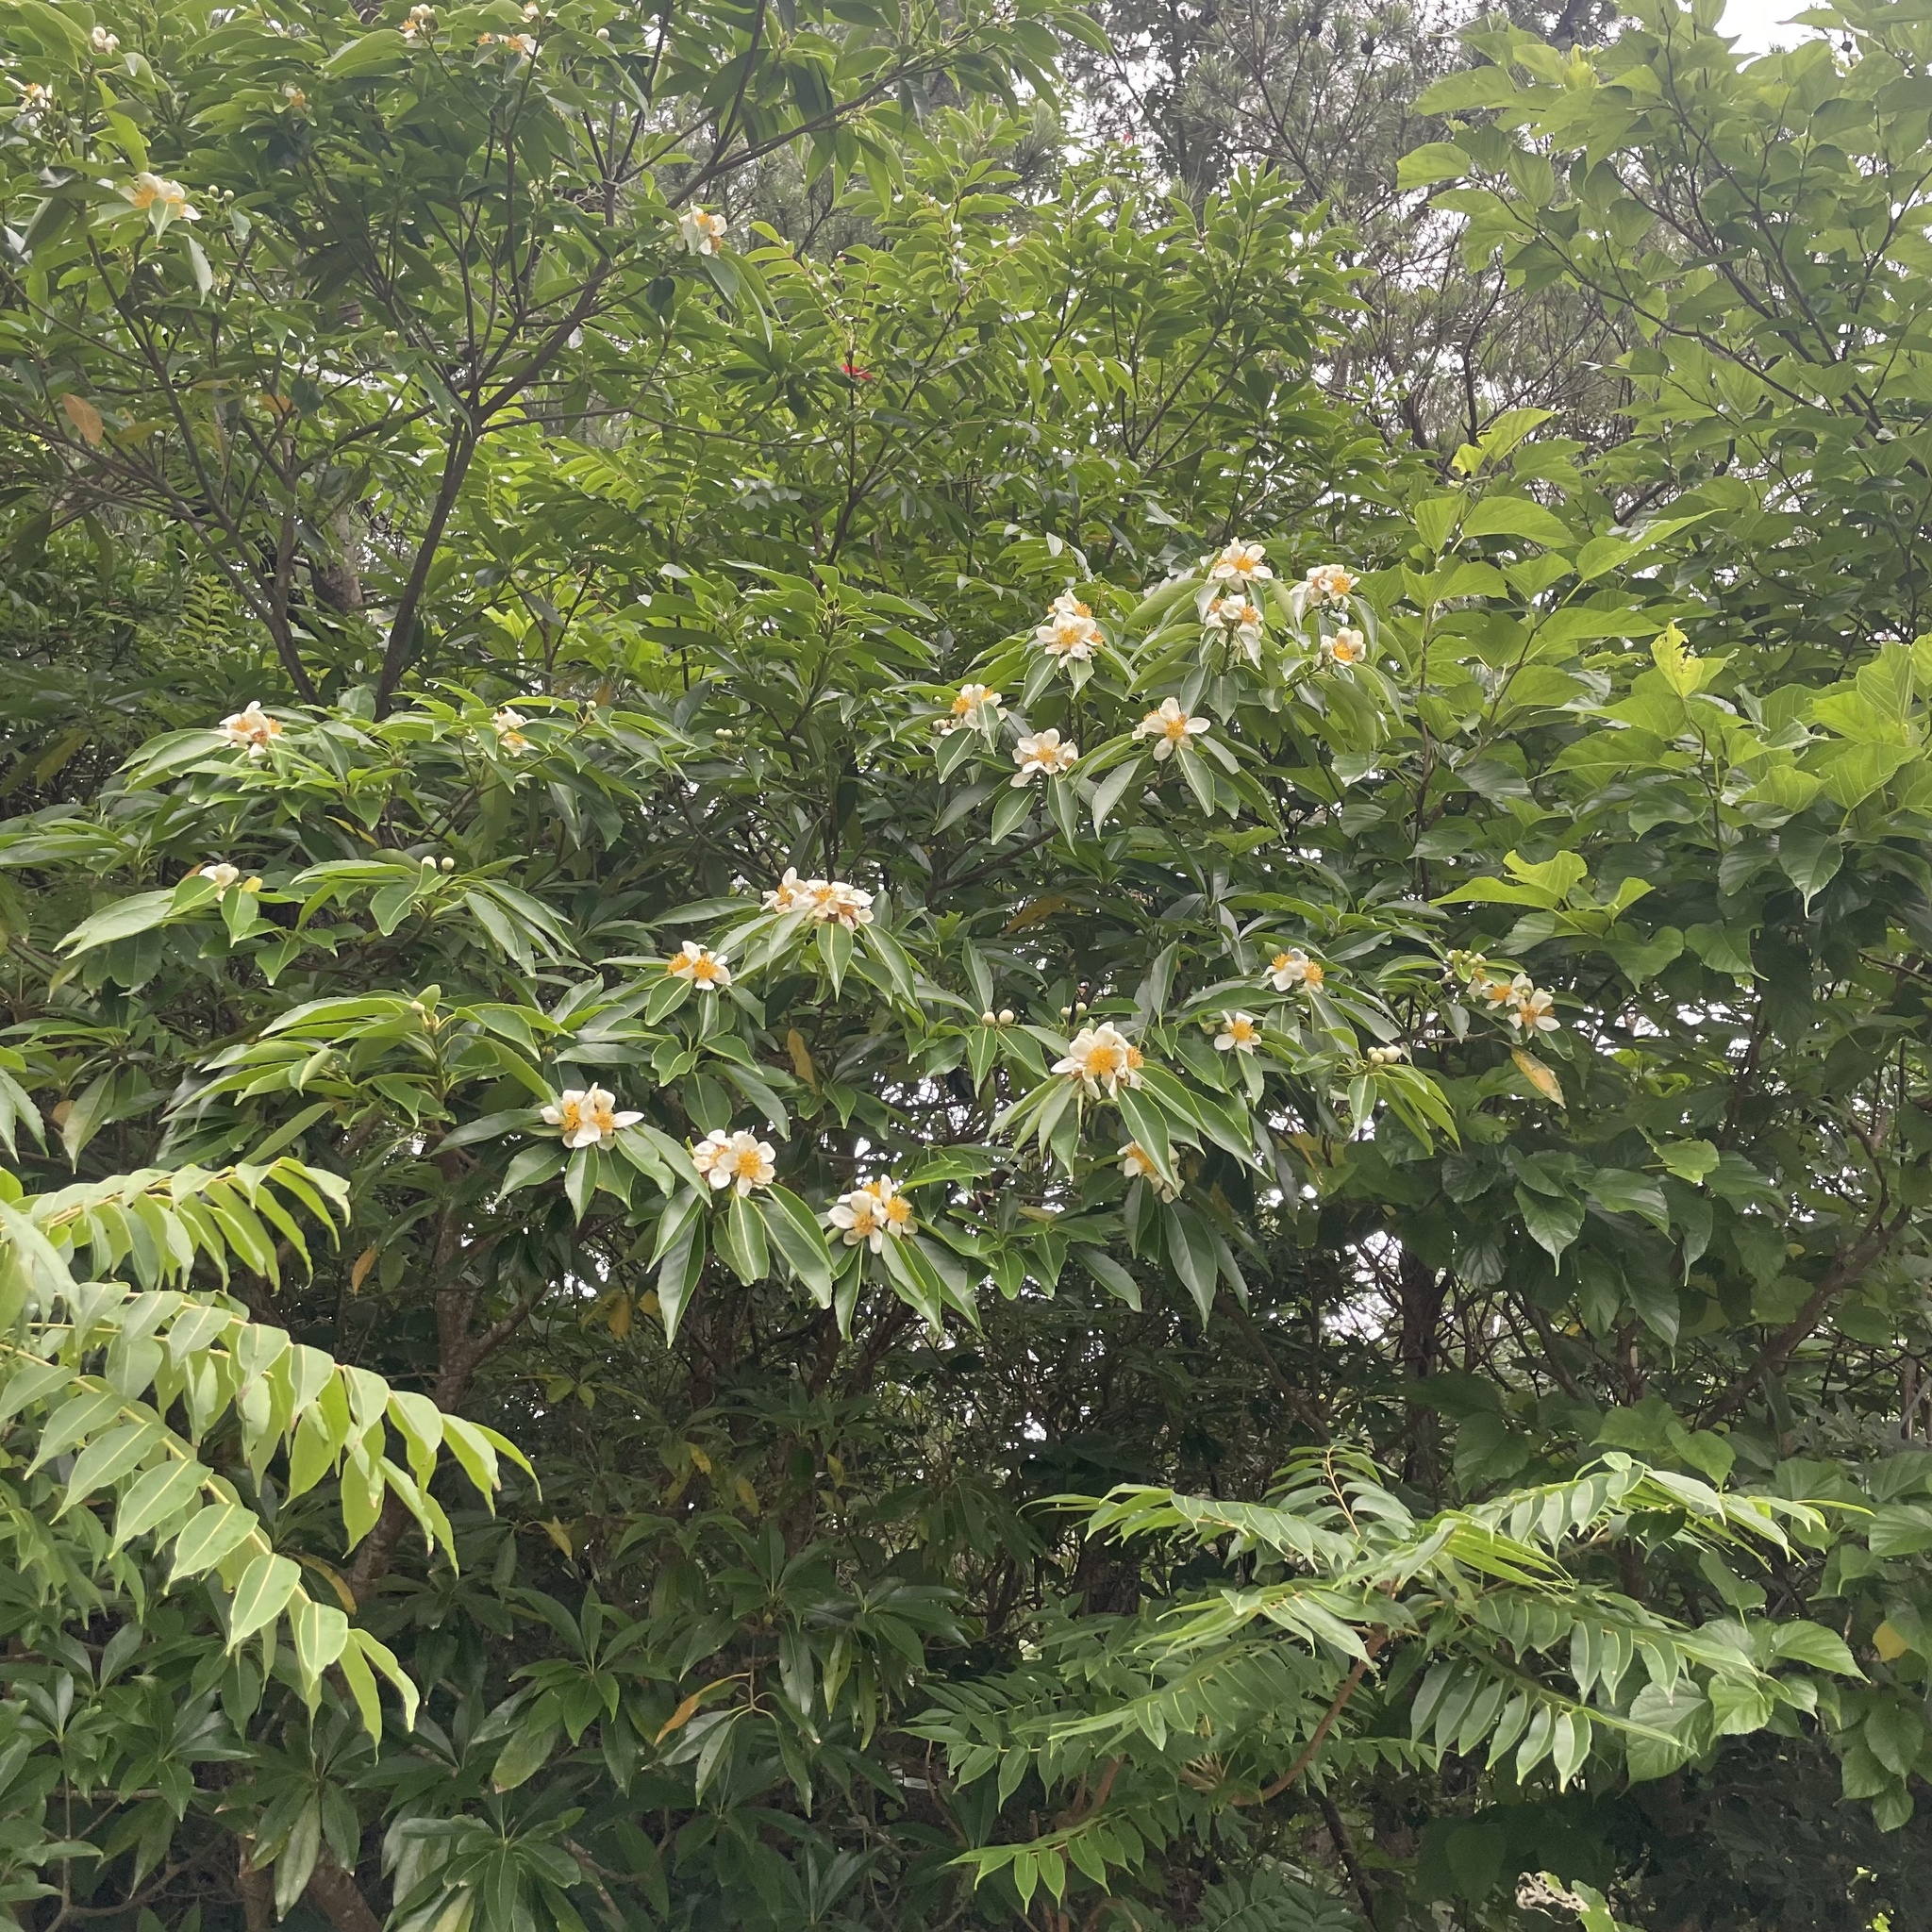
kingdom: Plantae
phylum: Tracheophyta
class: Magnoliopsida
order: Ericales
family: Theaceae
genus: Schima
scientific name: Schima noronhae
